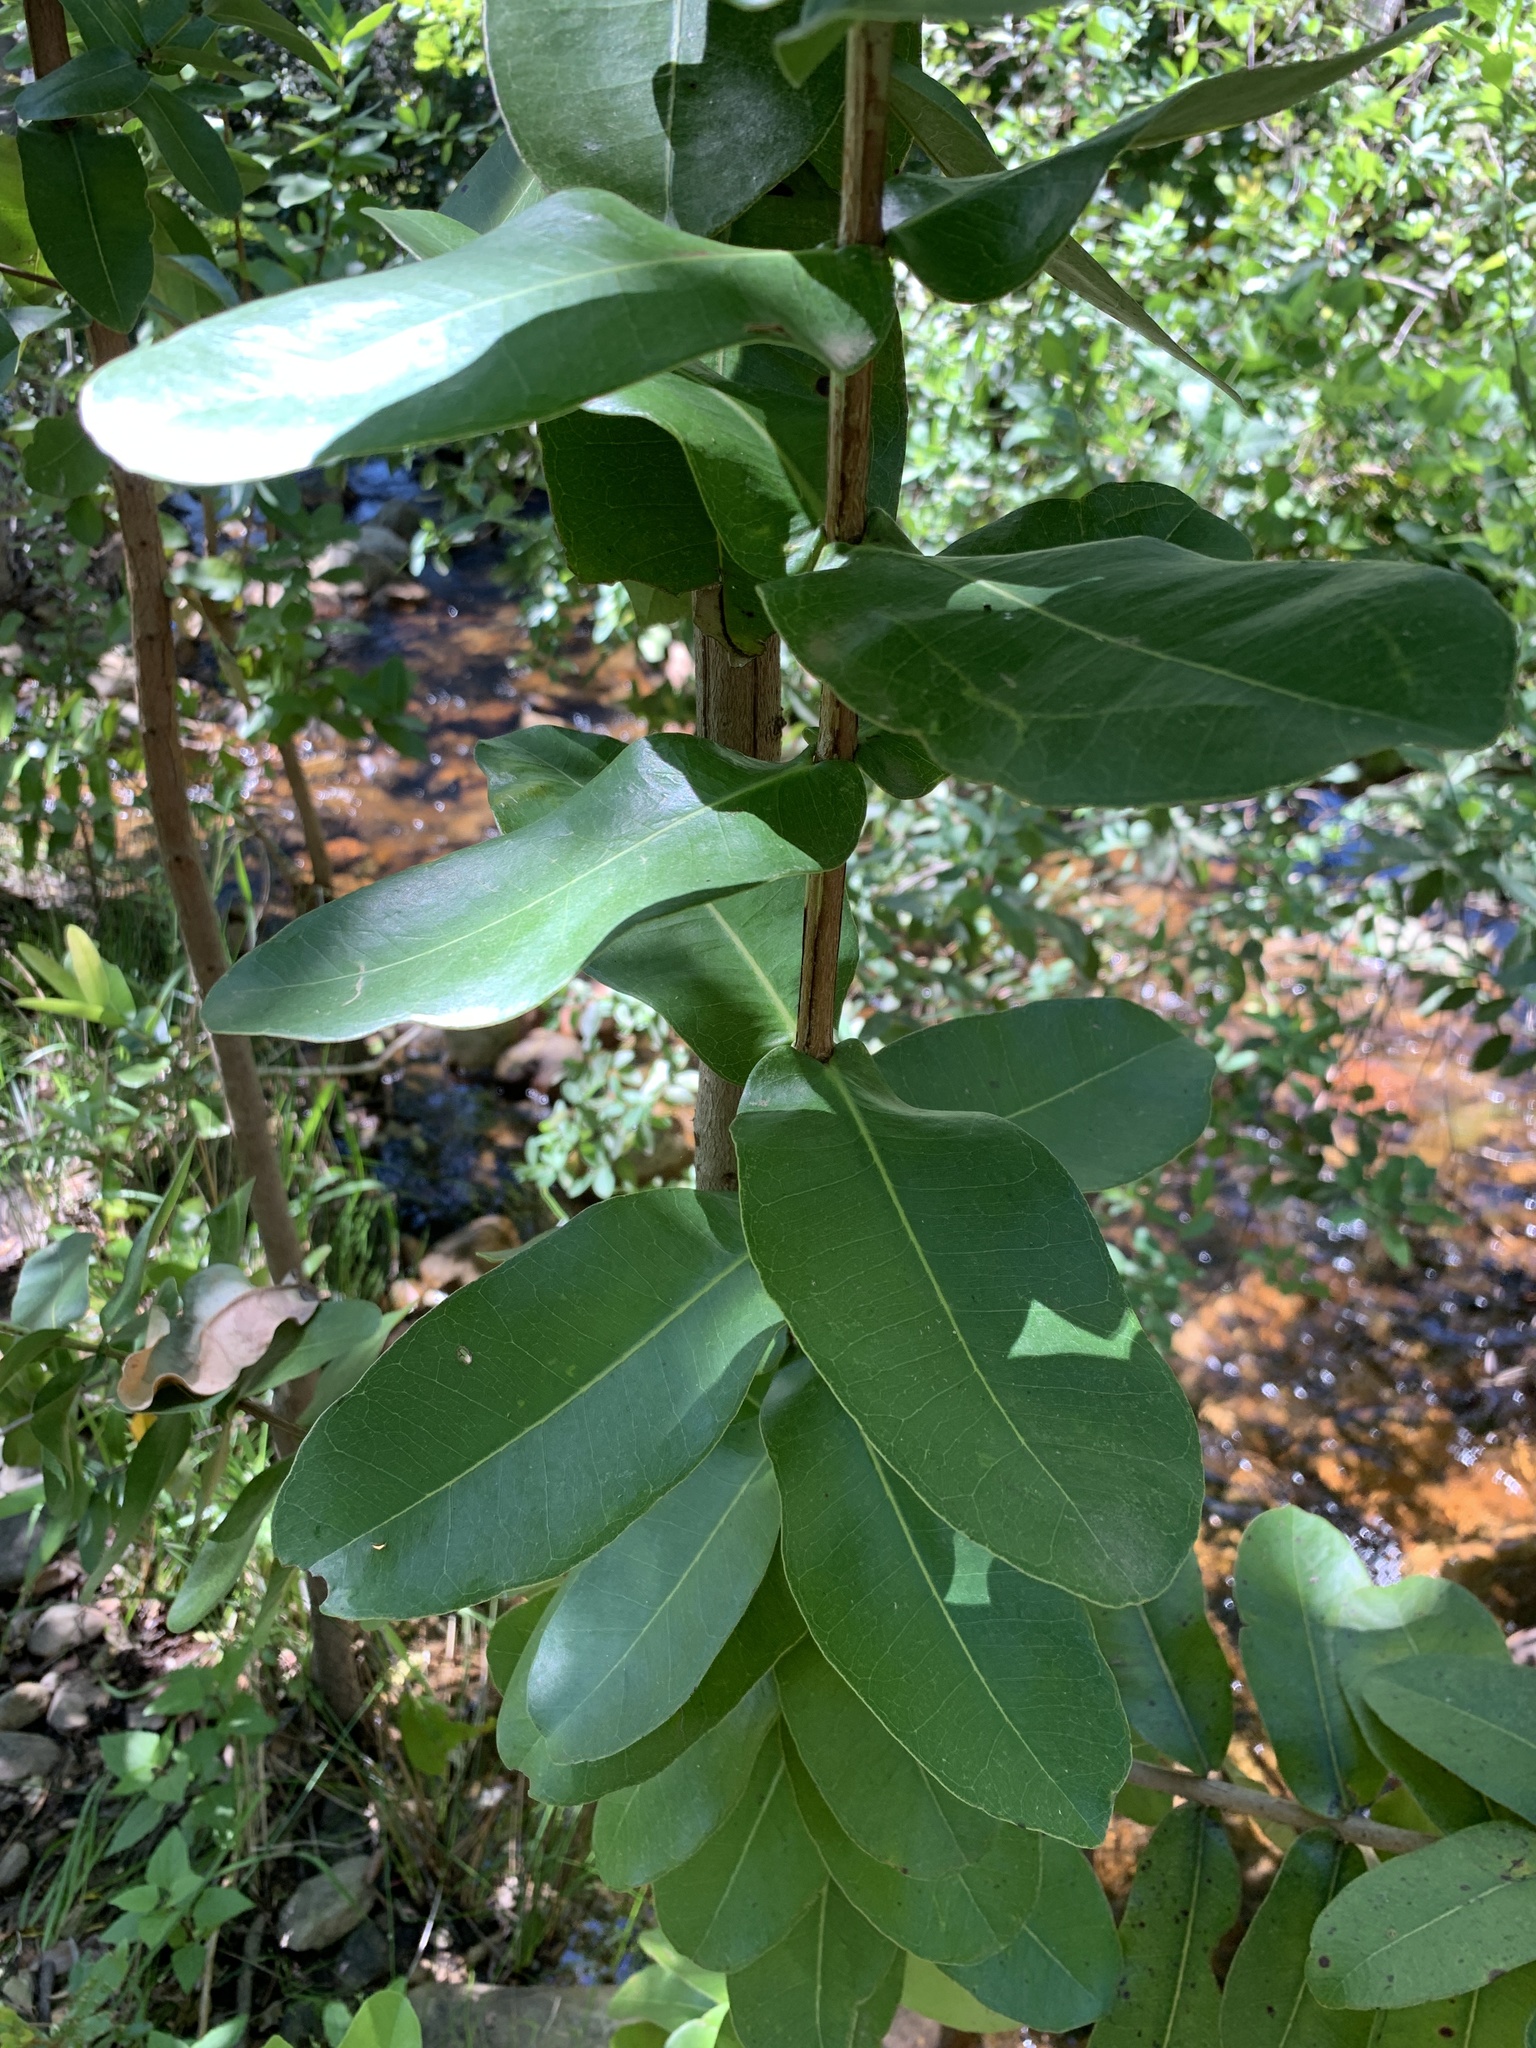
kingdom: Plantae
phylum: Tracheophyta
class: Magnoliopsida
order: Myrtales
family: Myrtaceae
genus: Syzygium
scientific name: Syzygium cordatum
